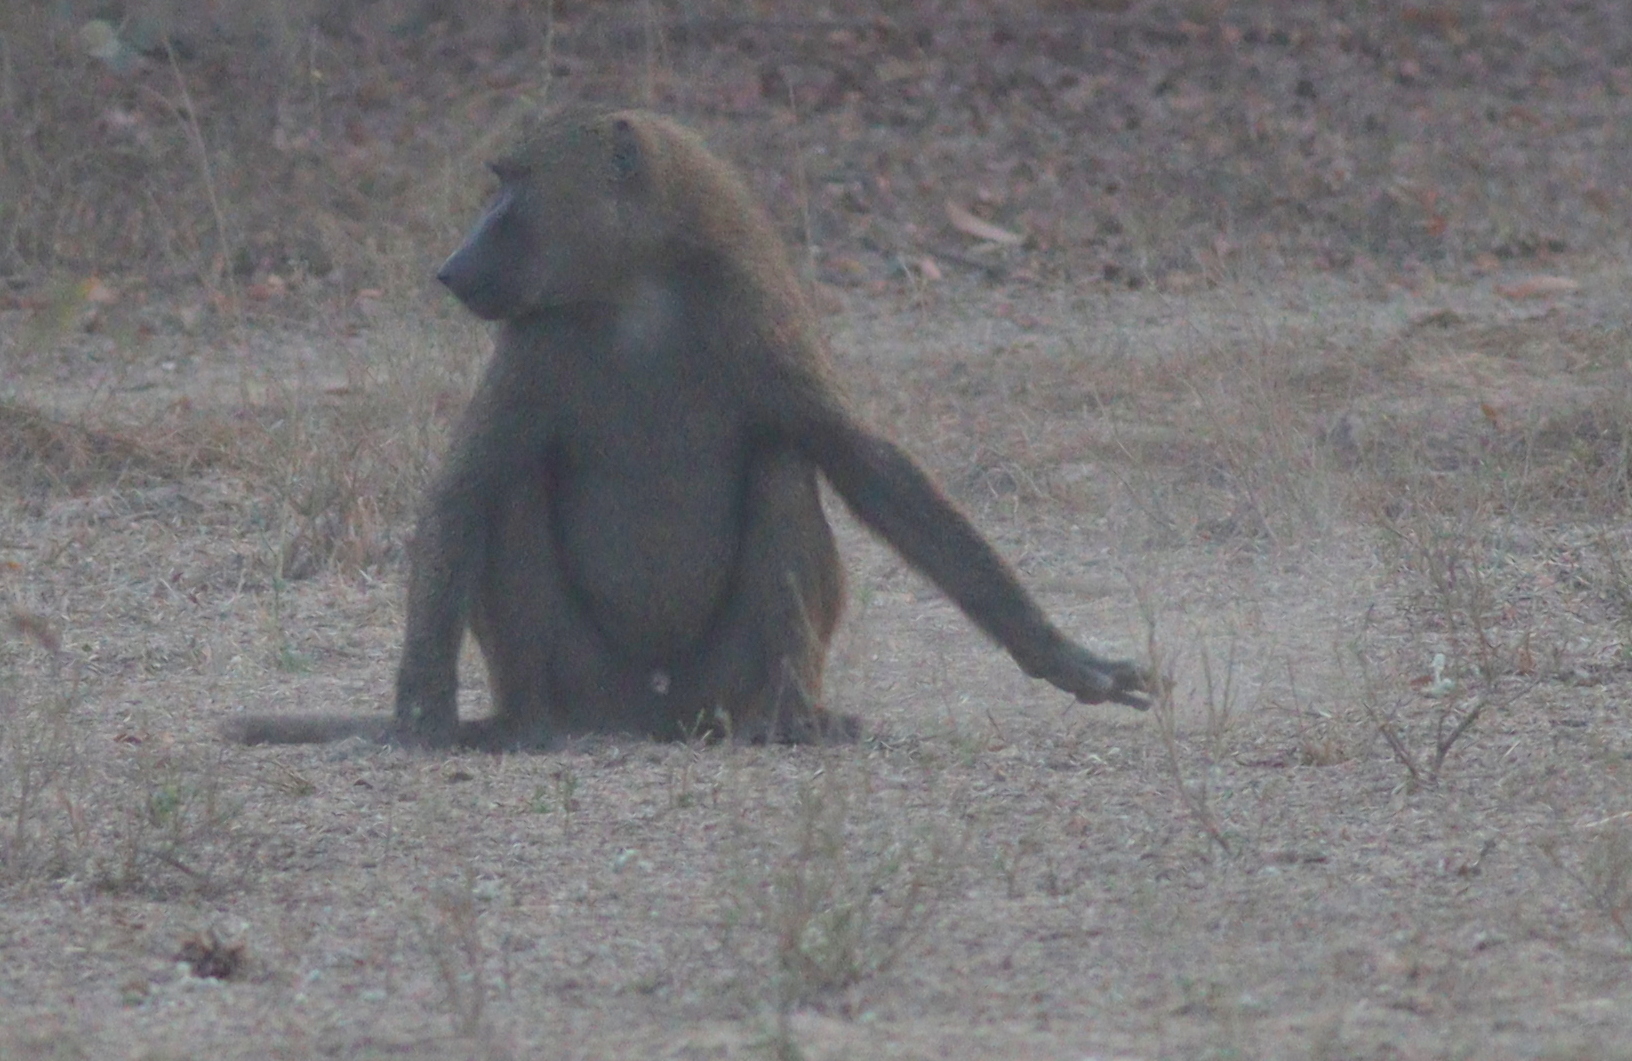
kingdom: Animalia
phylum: Chordata
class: Mammalia
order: Primates
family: Cercopithecidae
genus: Papio
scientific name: Papio anubis
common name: Olive baboon
